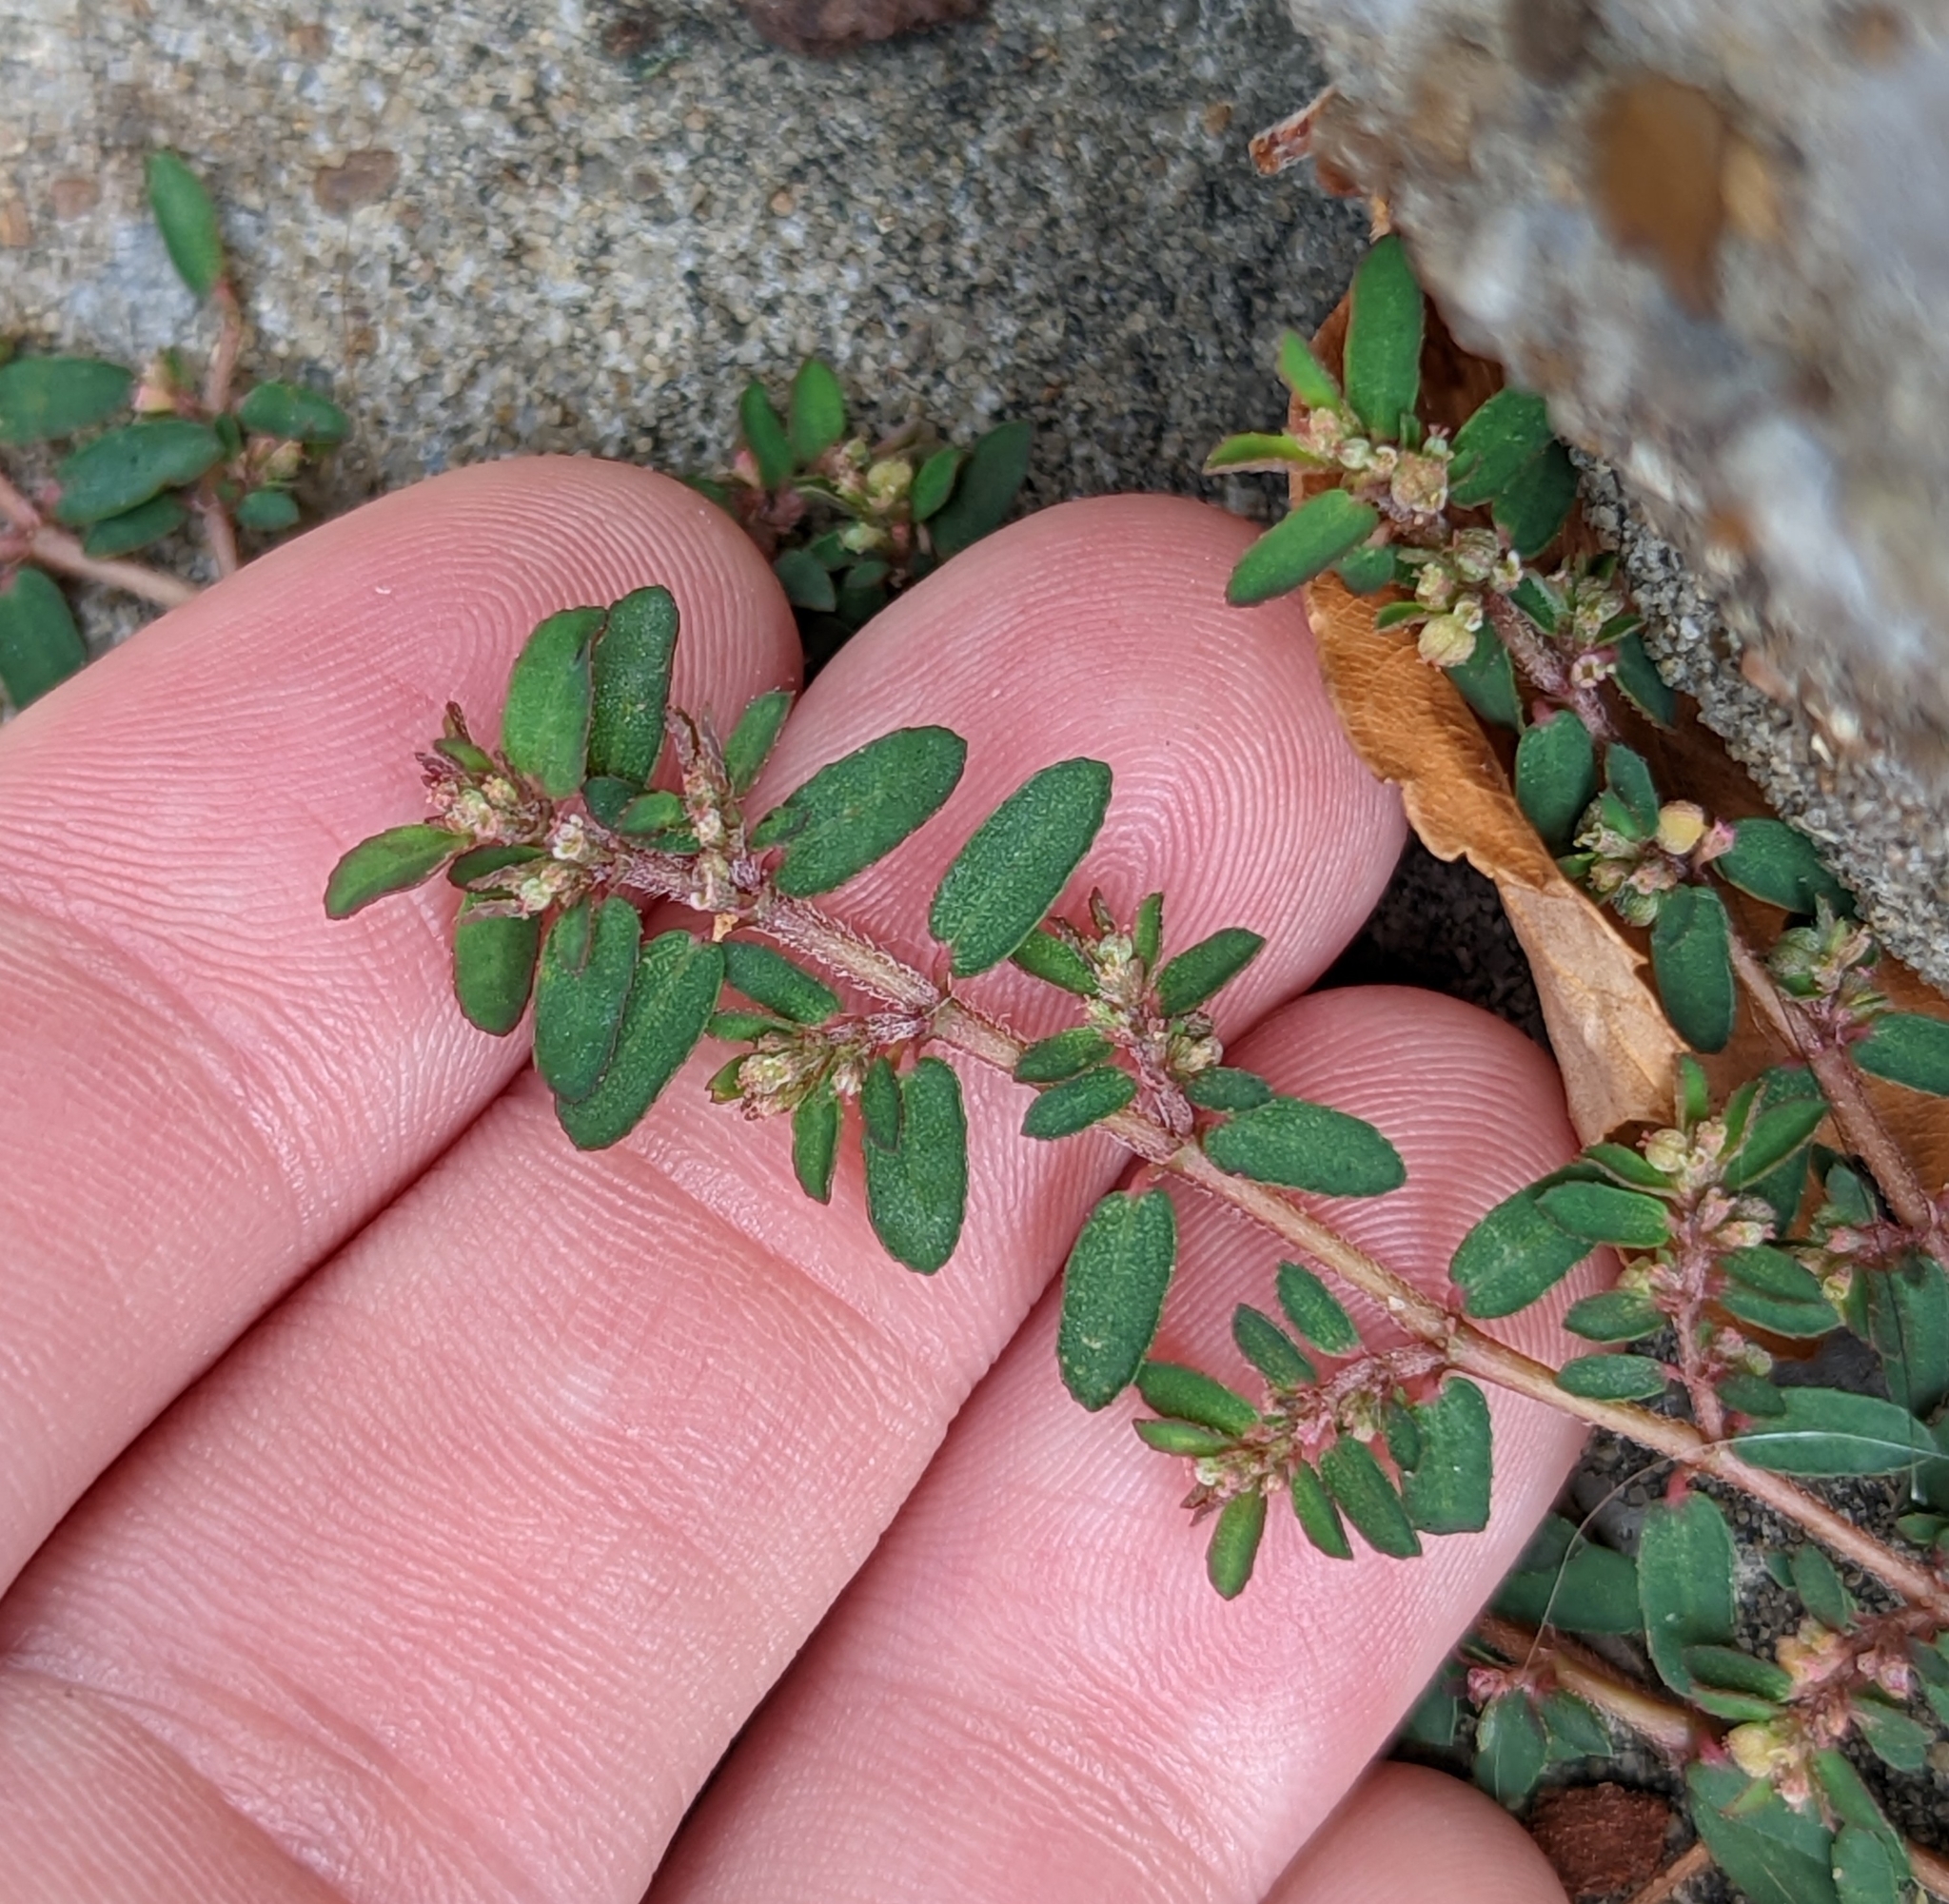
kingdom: Plantae
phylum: Tracheophyta
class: Magnoliopsida
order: Malpighiales
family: Euphorbiaceae
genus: Euphorbia
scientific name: Euphorbia maculata
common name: Spotted spurge
